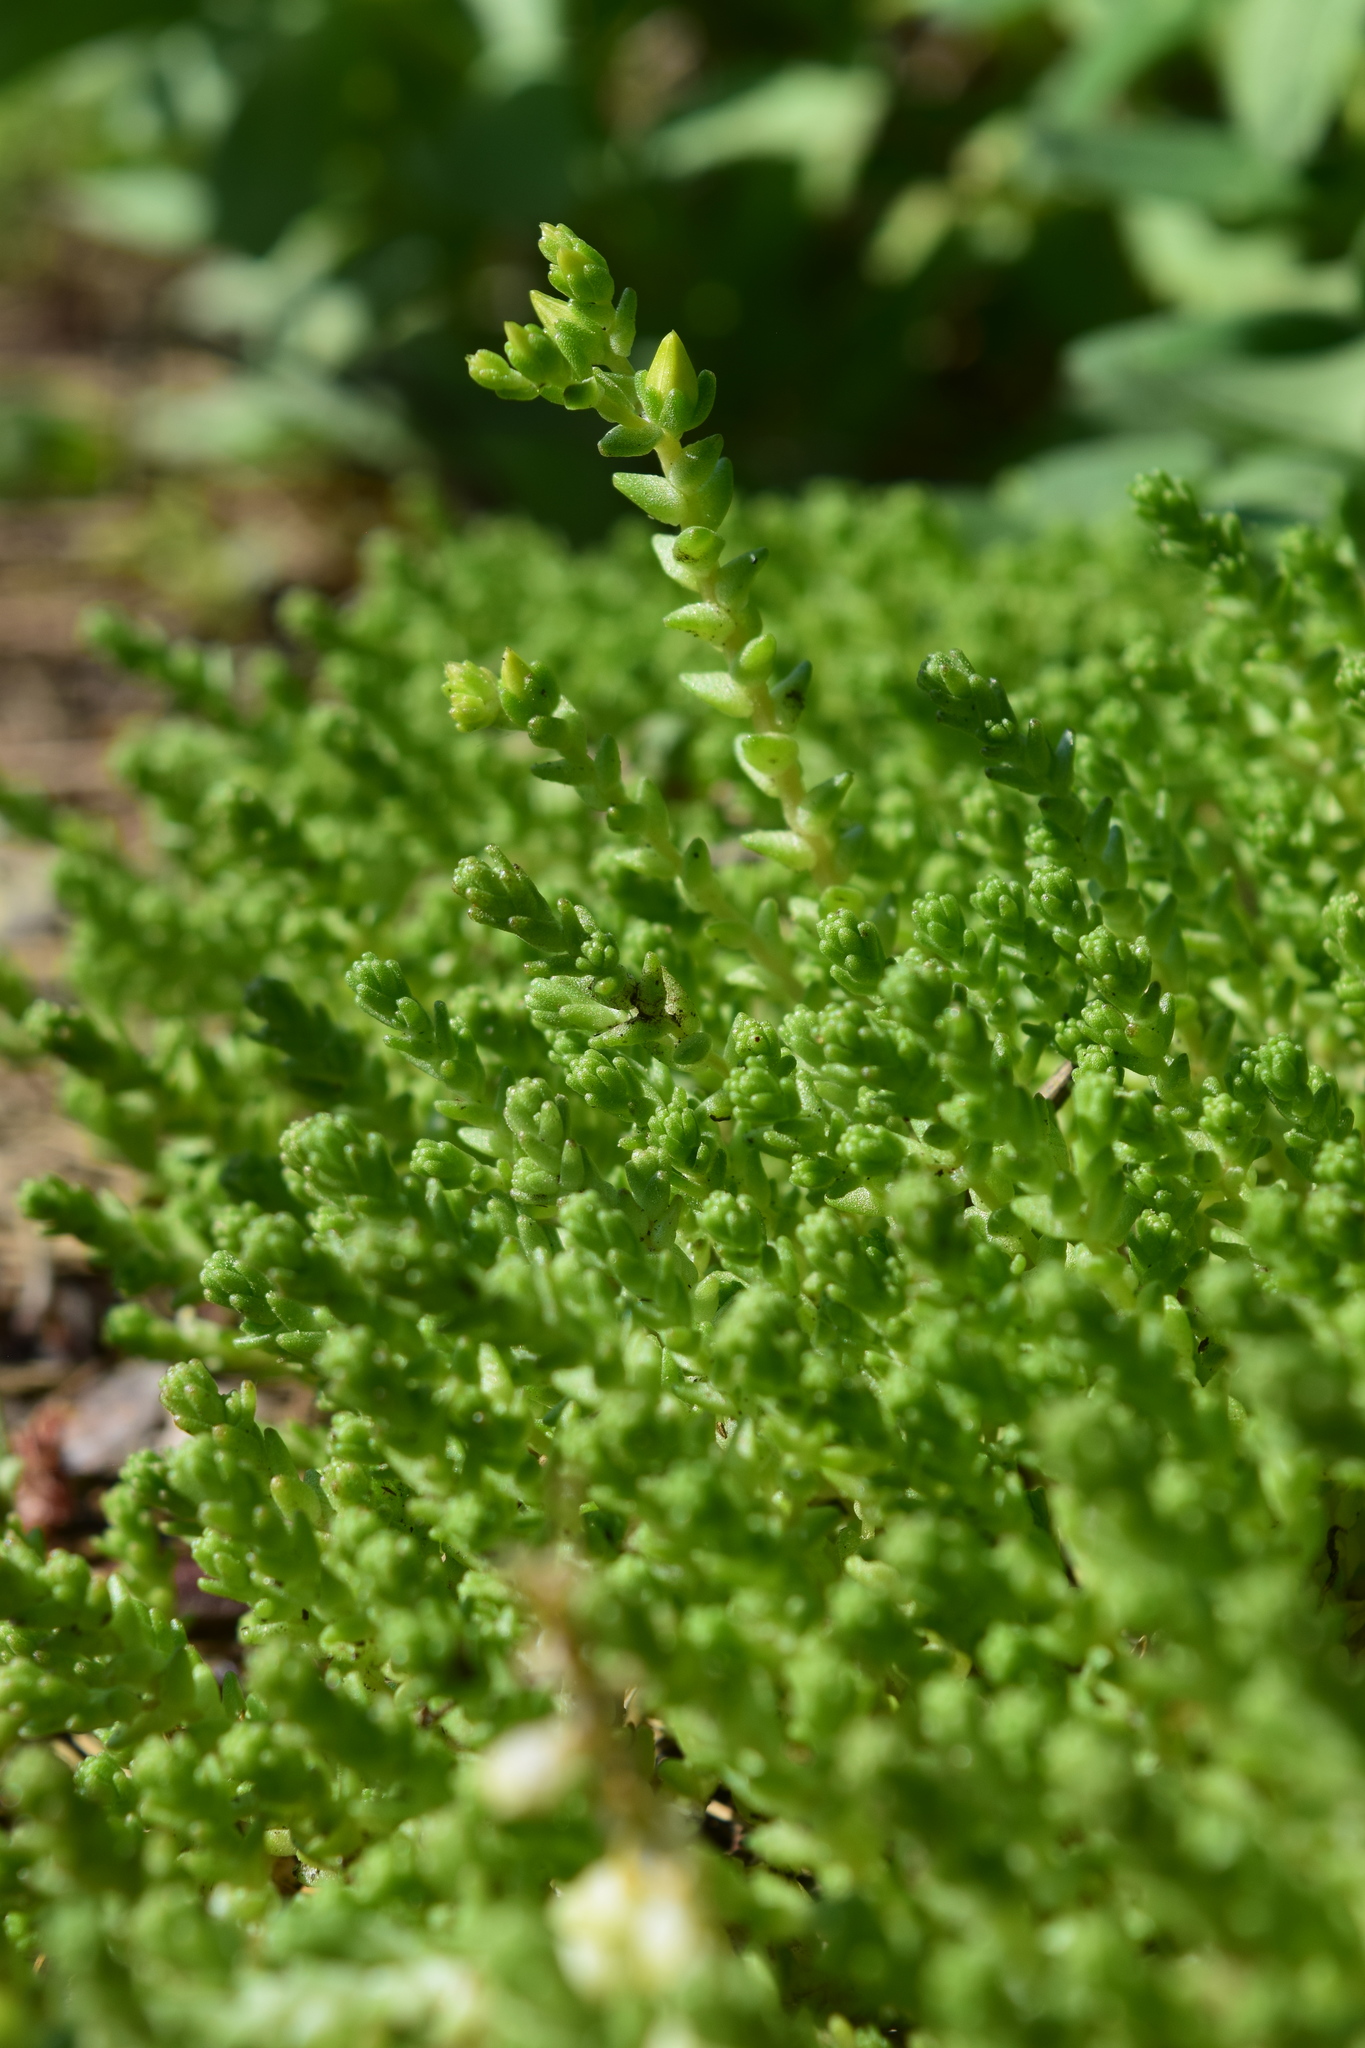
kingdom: Plantae
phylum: Tracheophyta
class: Magnoliopsida
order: Saxifragales
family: Crassulaceae
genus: Sedum
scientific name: Sedum acre
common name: Biting stonecrop
